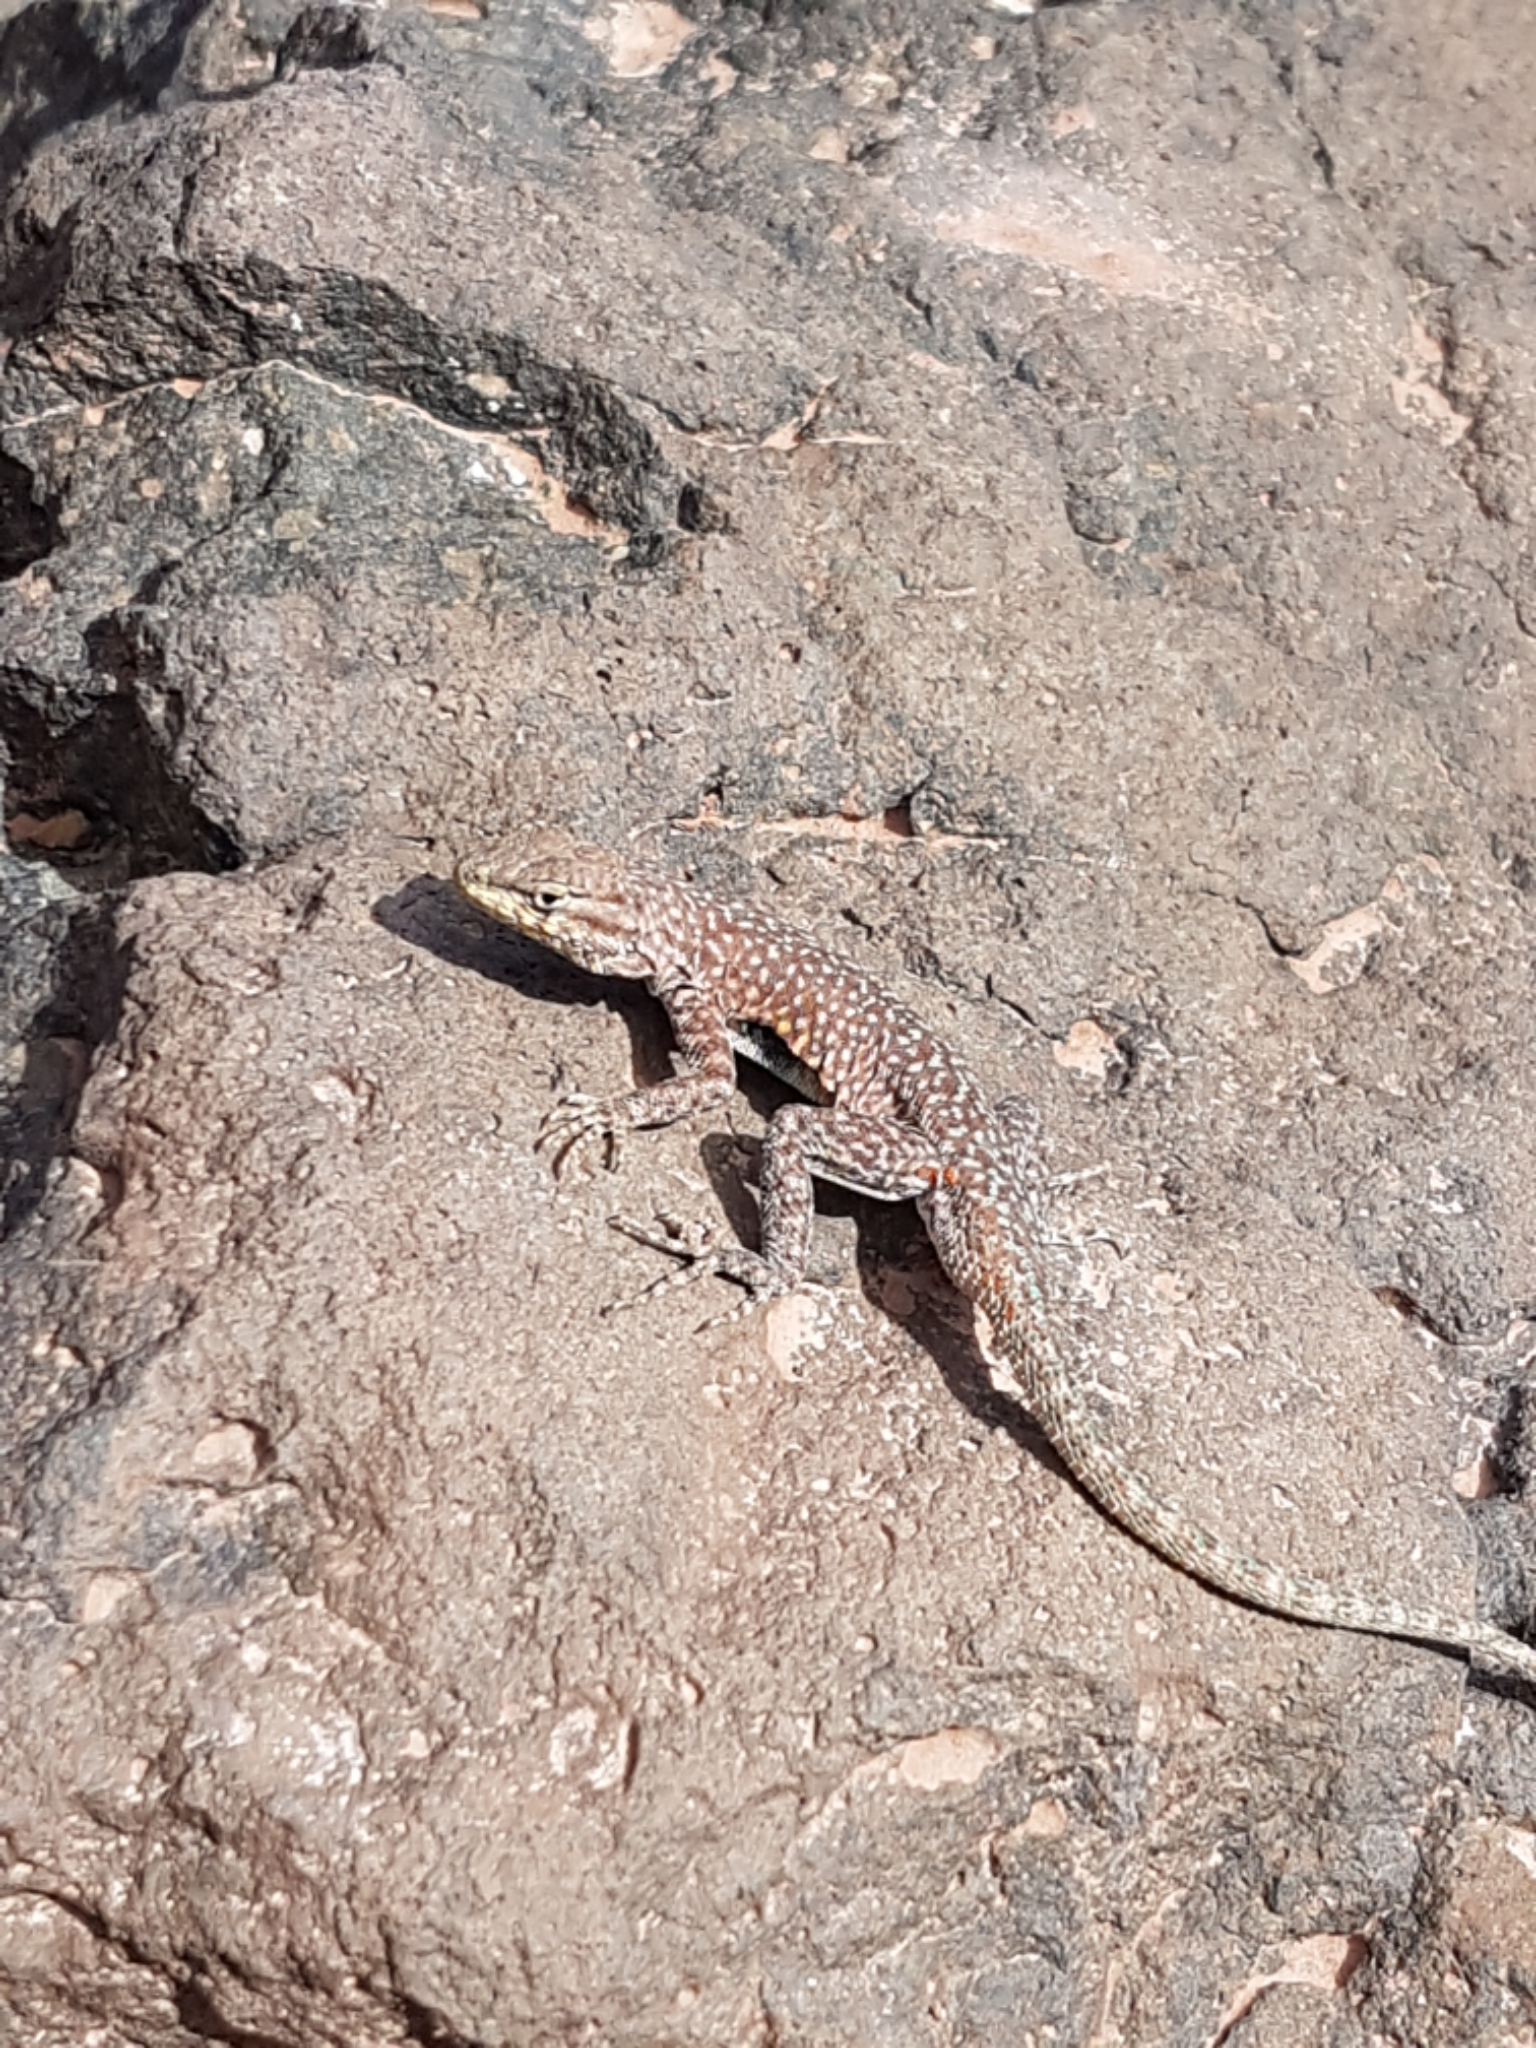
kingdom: Animalia
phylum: Chordata
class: Squamata
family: Phrynosomatidae
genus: Uta
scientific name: Uta stansburiana
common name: Side-blotched lizard
